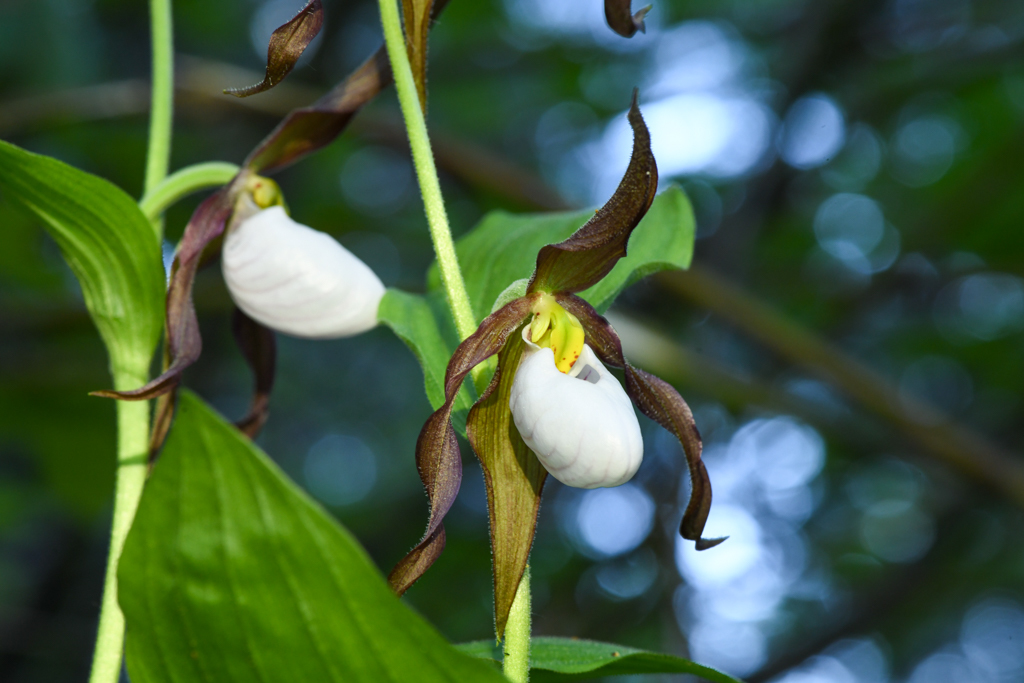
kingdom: Plantae
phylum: Tracheophyta
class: Liliopsida
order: Asparagales
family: Orchidaceae
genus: Cypripedium
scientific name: Cypripedium montanum
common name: Mountain lady's-slipper
